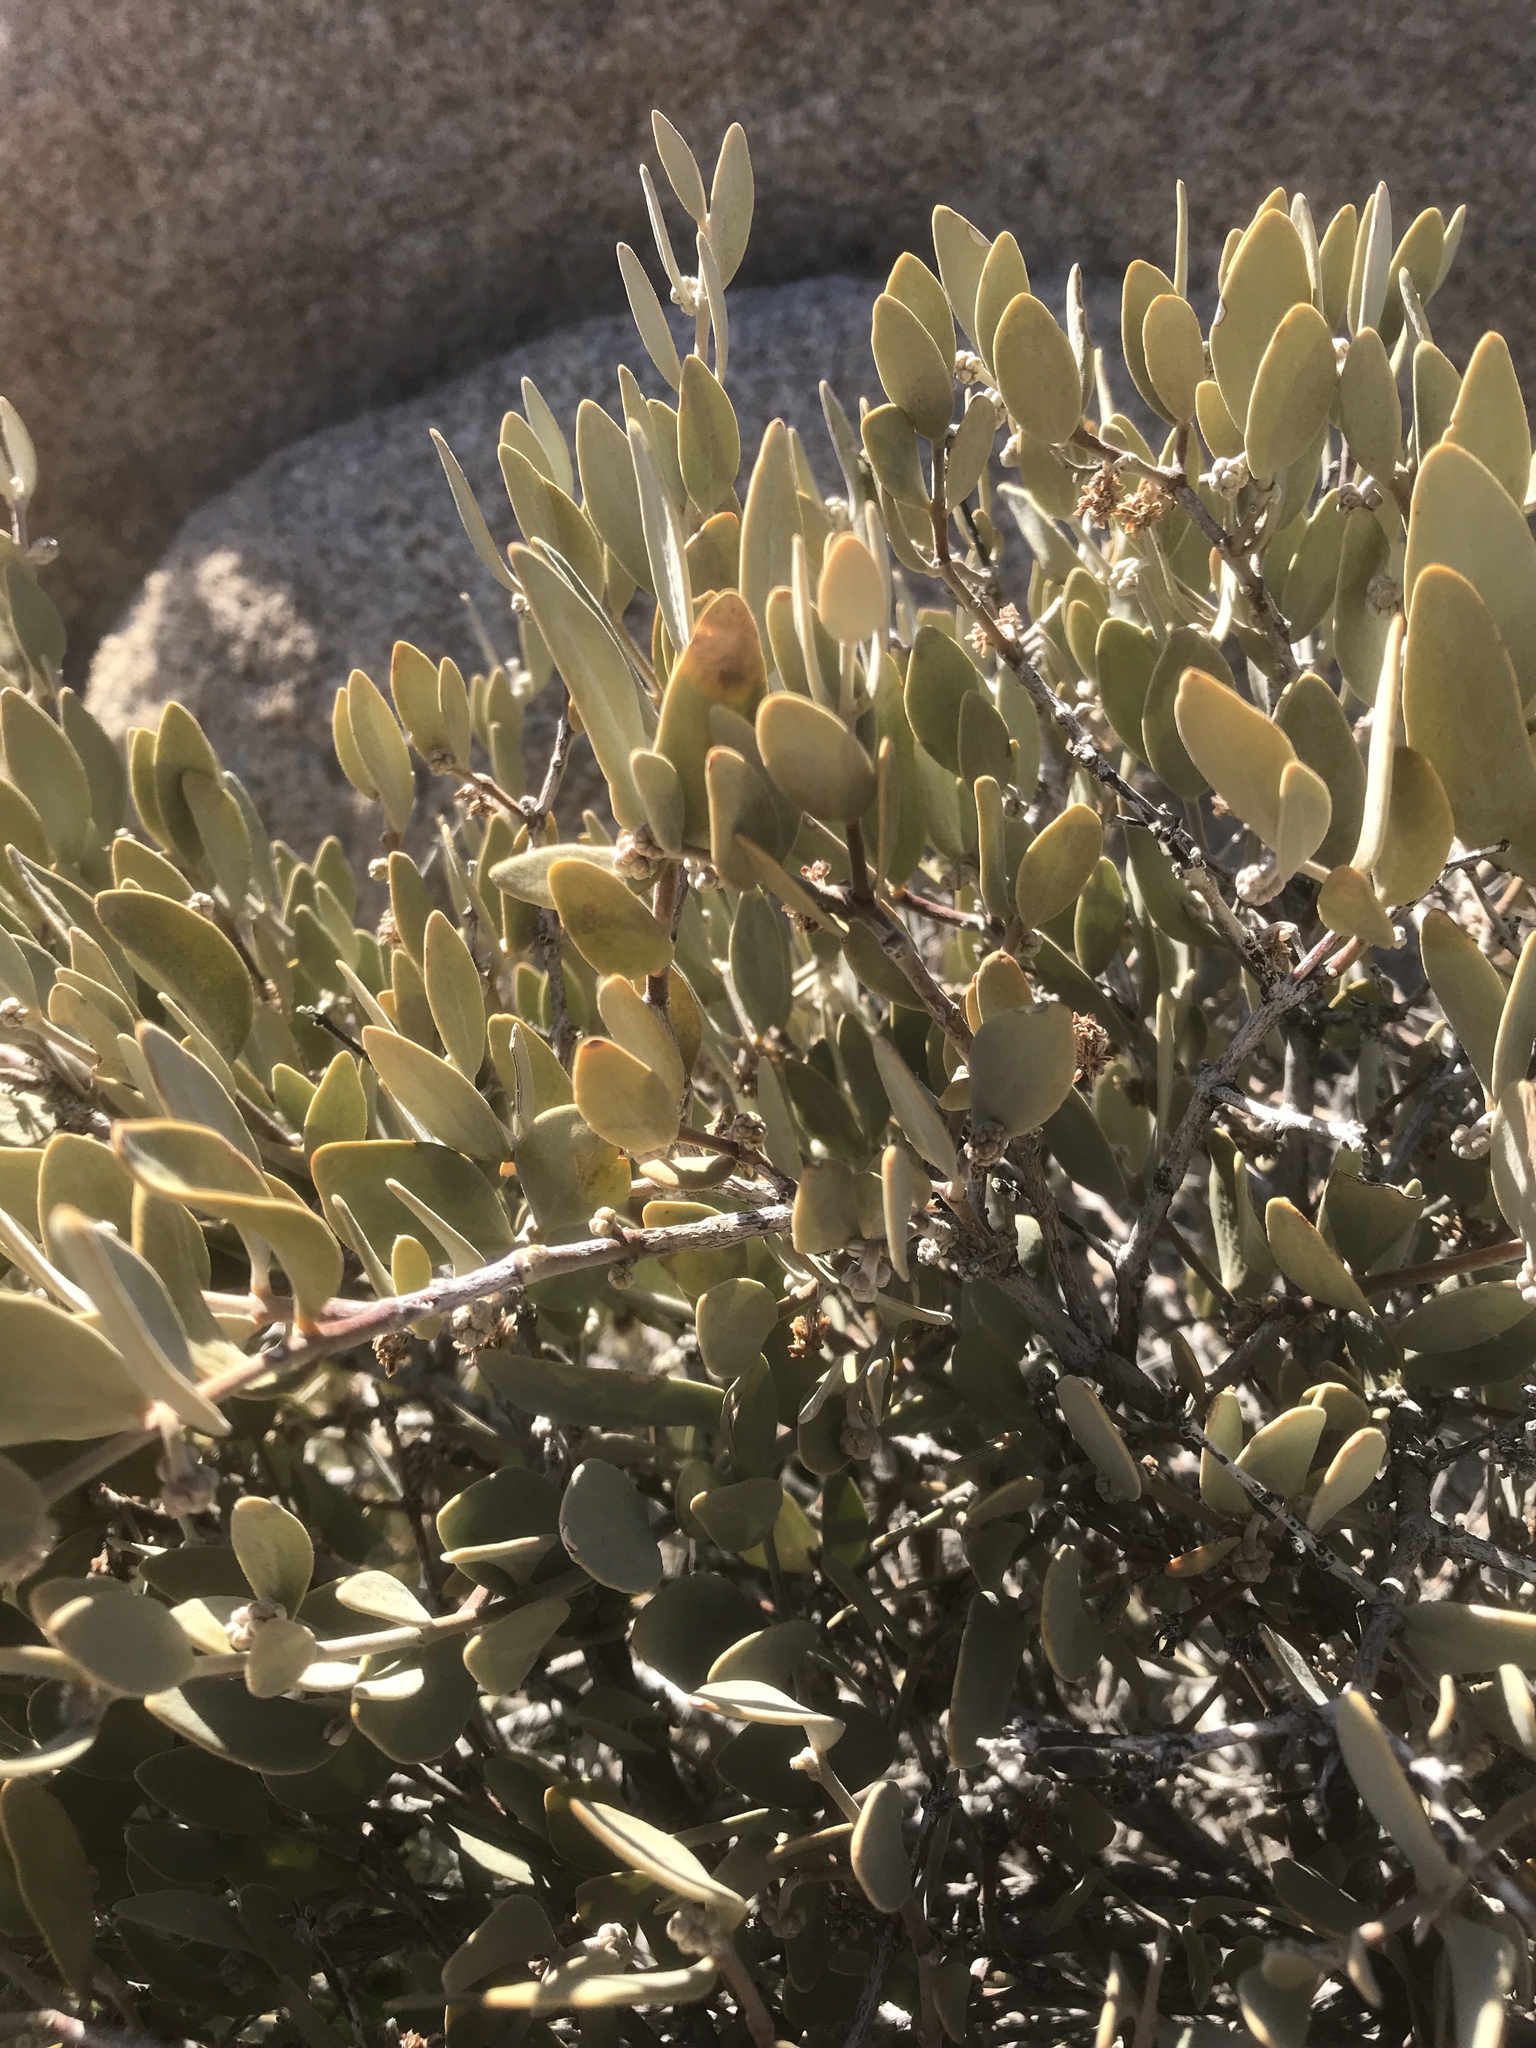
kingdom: Plantae
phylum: Tracheophyta
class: Magnoliopsida
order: Caryophyllales
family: Simmondsiaceae
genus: Simmondsia
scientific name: Simmondsia chinensis
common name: Jojoba
